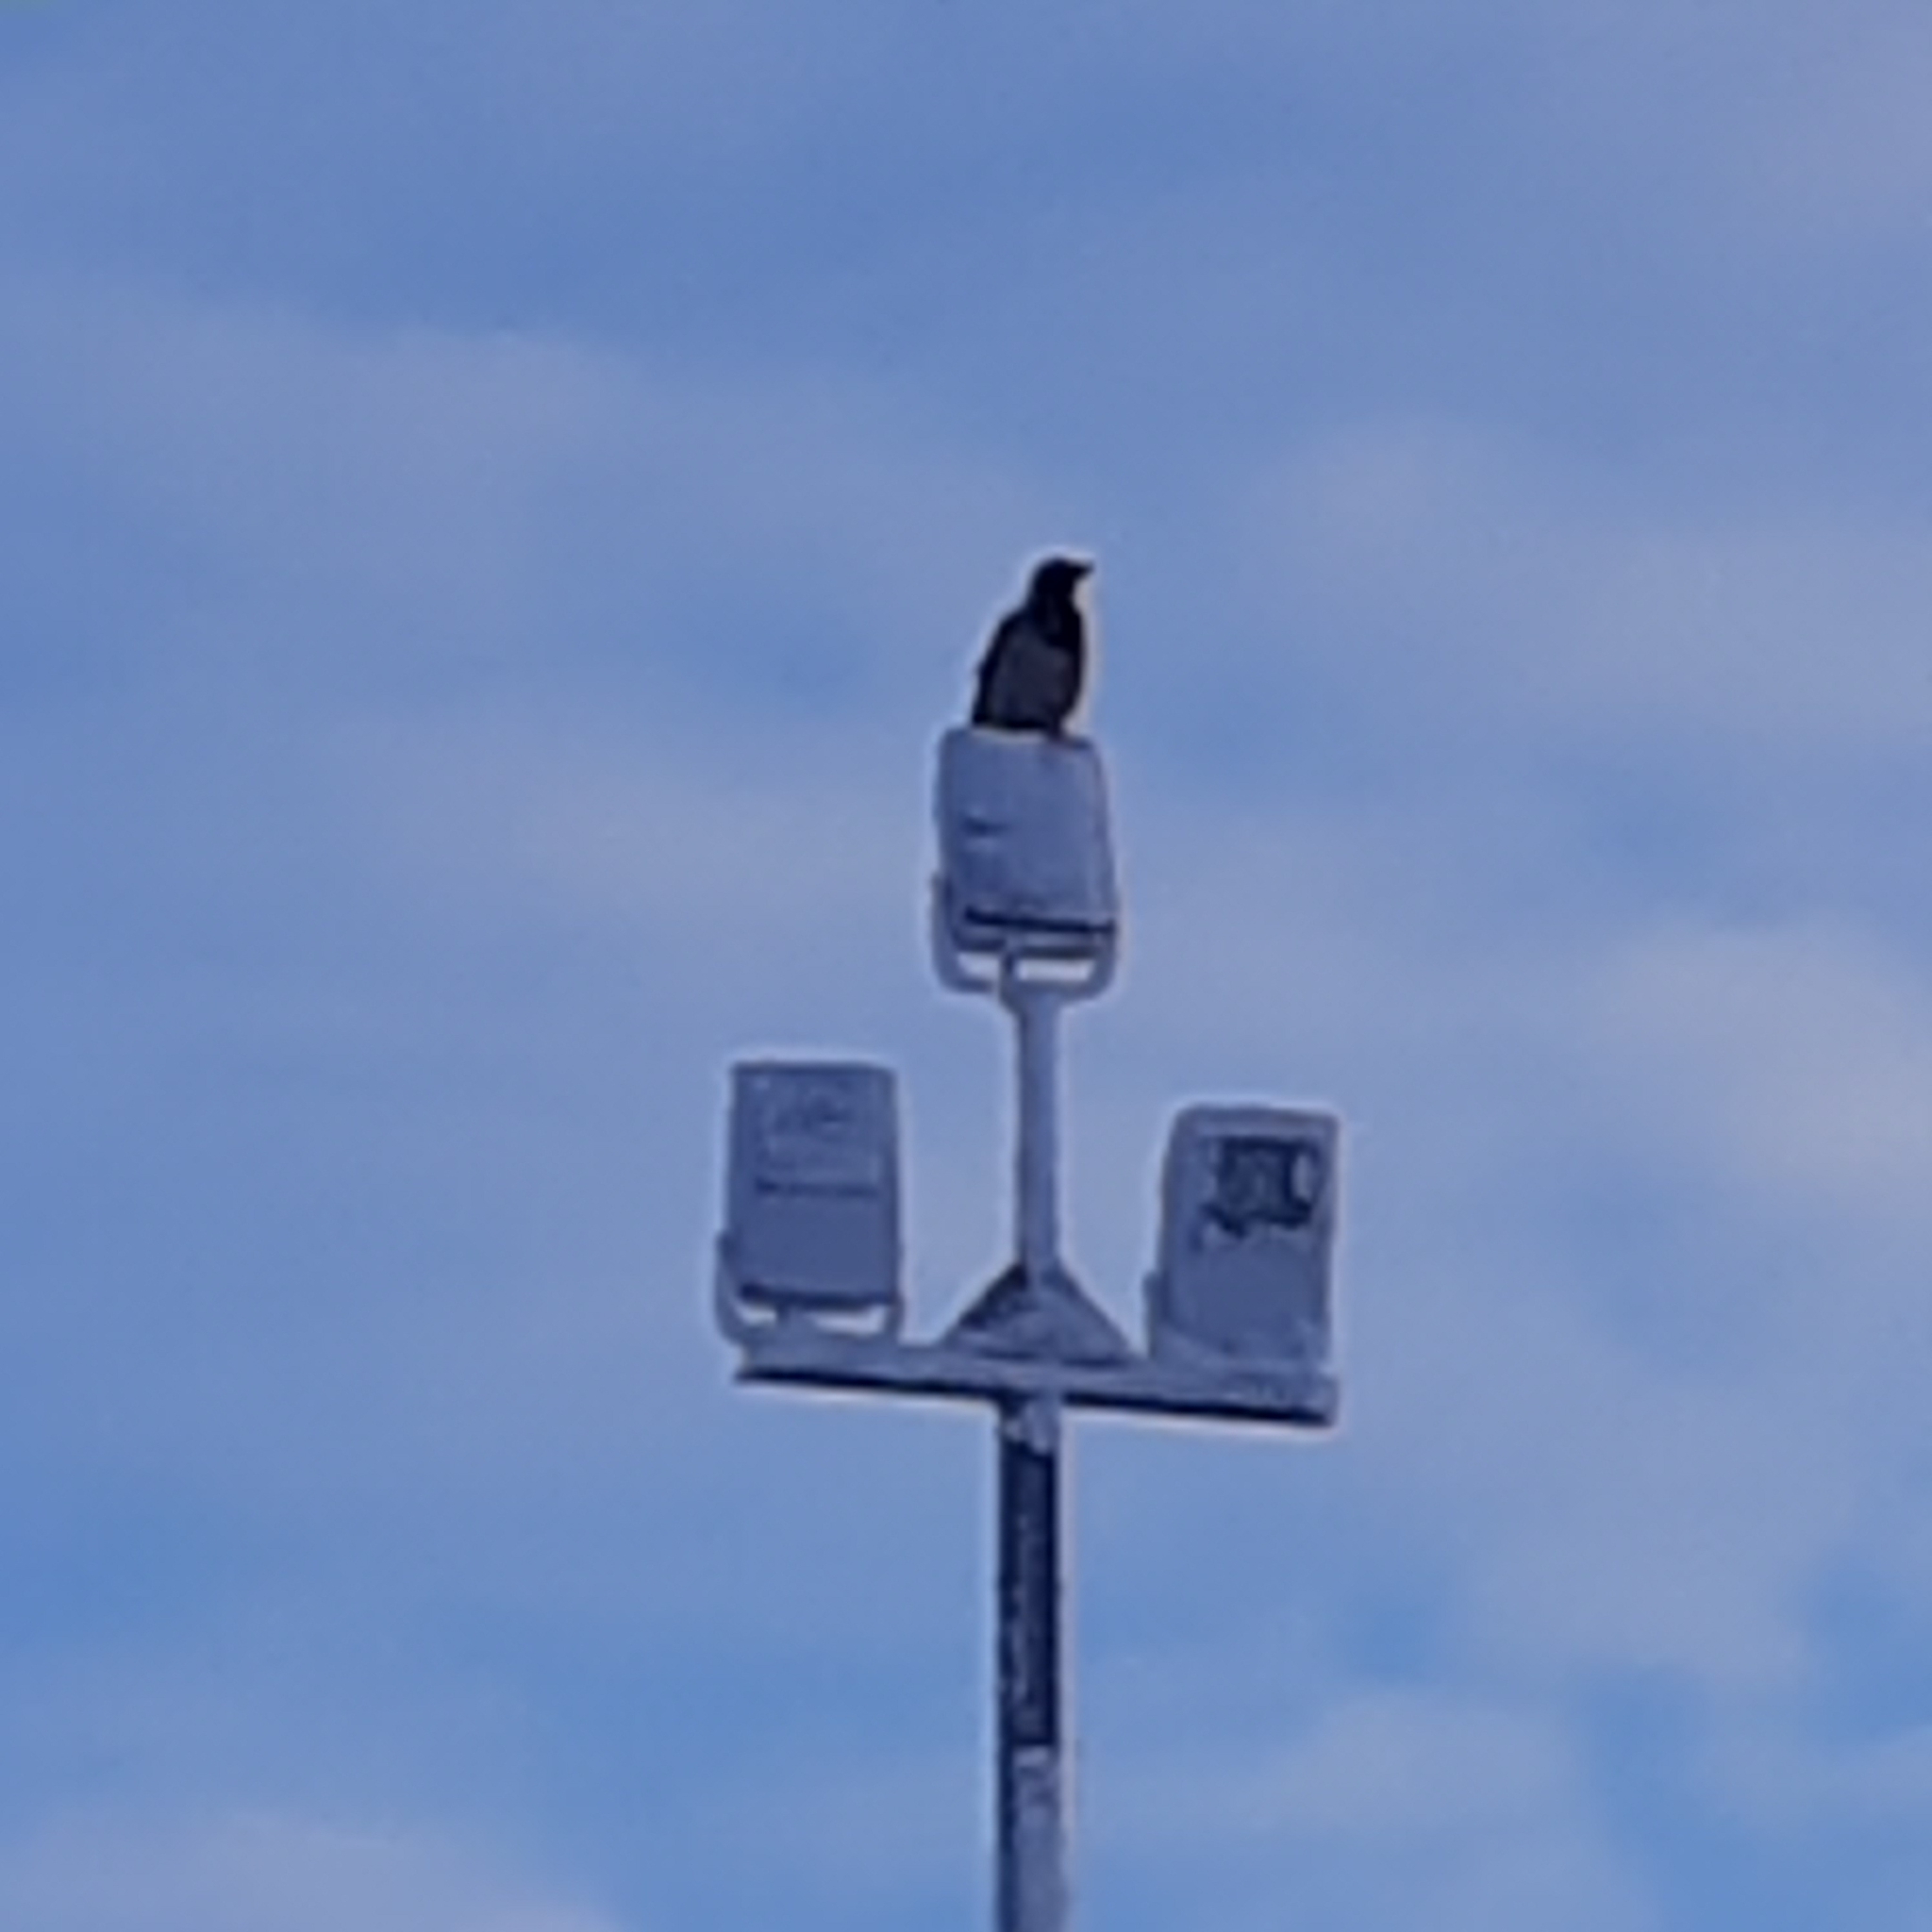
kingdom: Animalia
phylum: Chordata
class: Aves
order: Passeriformes
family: Corvidae
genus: Corvus
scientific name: Corvus cornix
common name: Hooded crow
